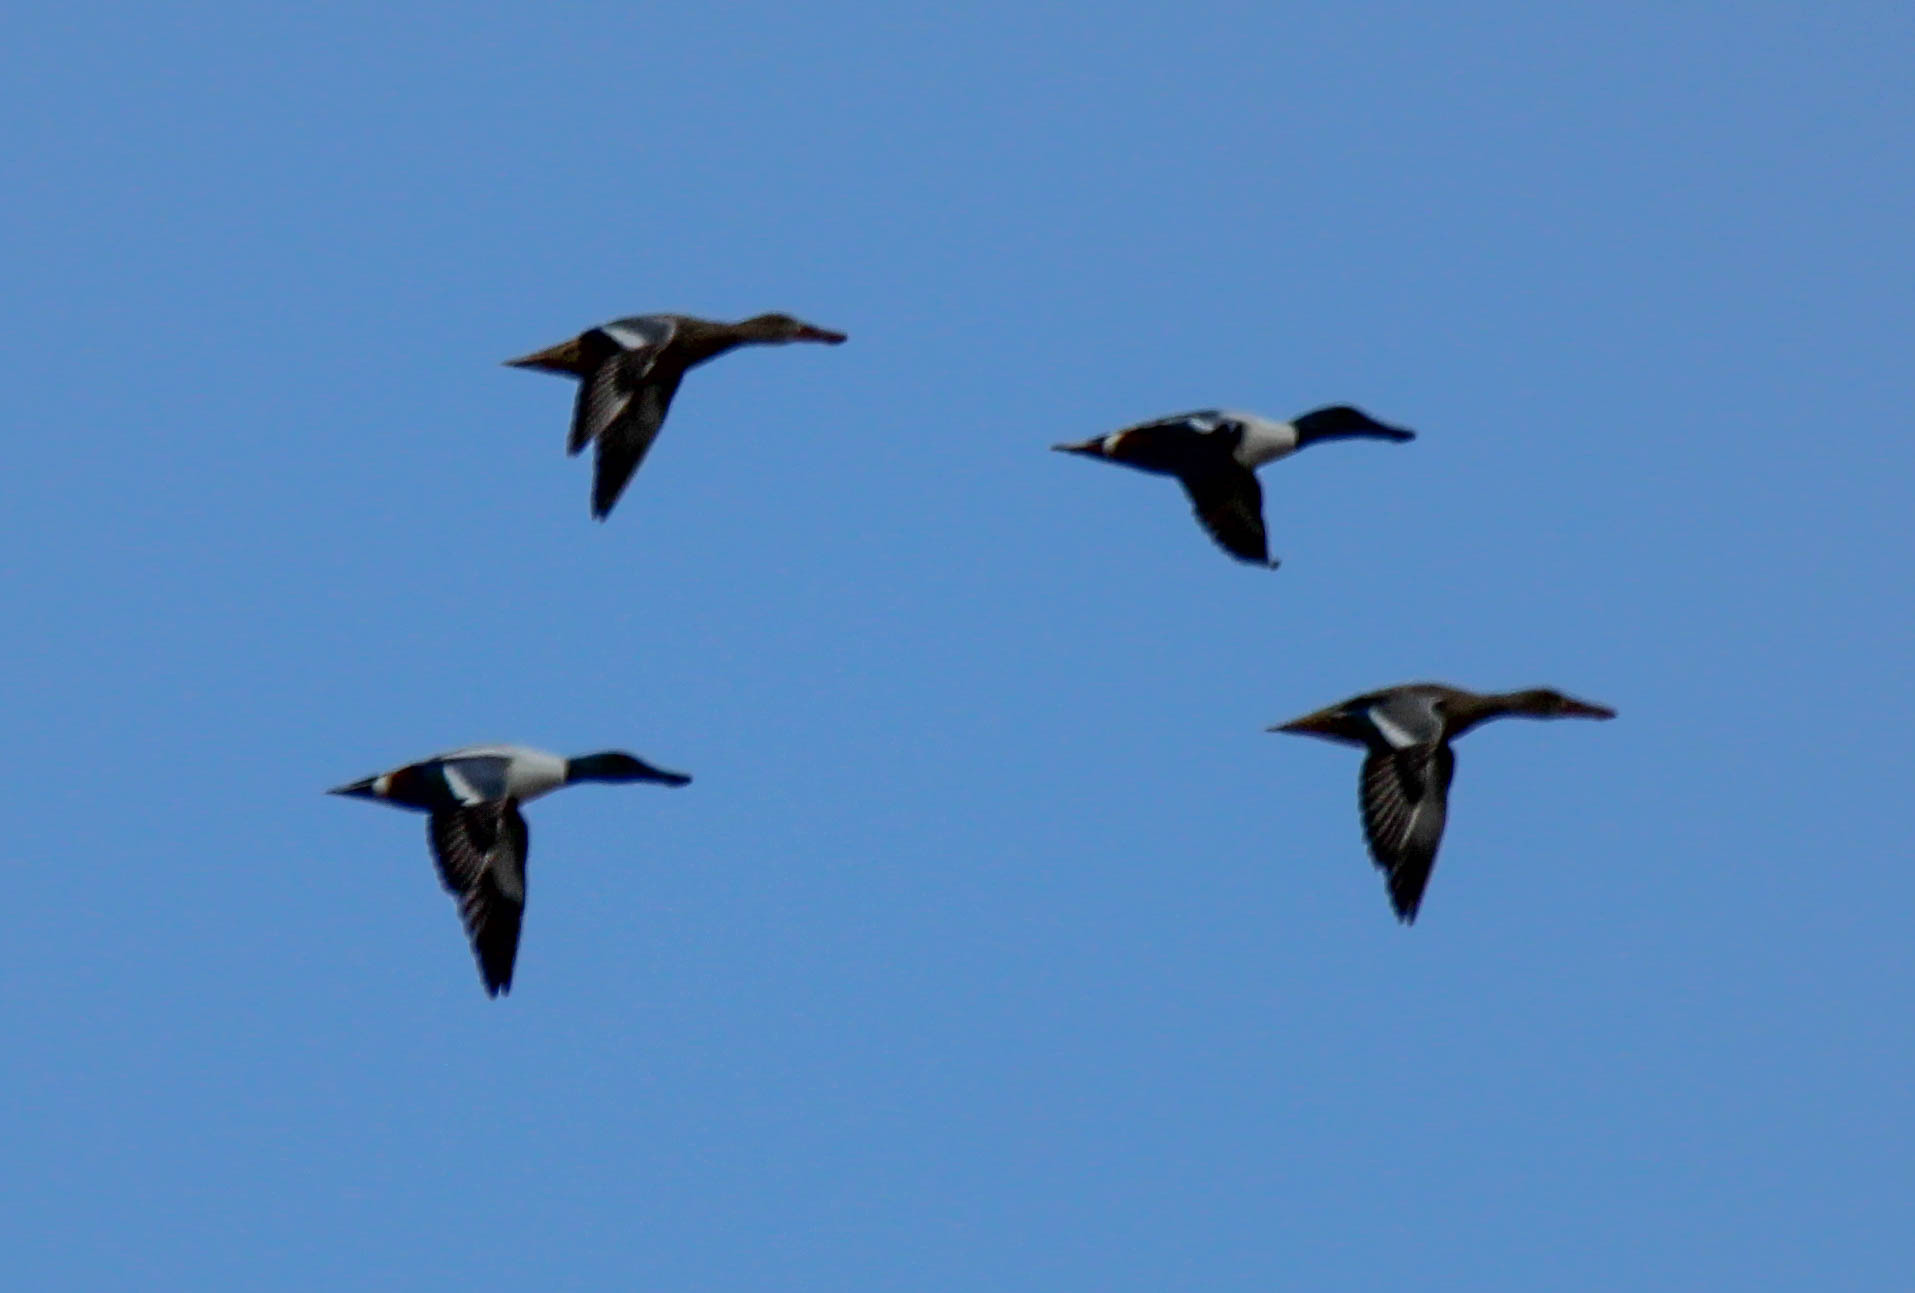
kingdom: Animalia
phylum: Chordata
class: Aves
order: Anseriformes
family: Anatidae
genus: Spatula
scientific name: Spatula clypeata
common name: Northern shoveler
